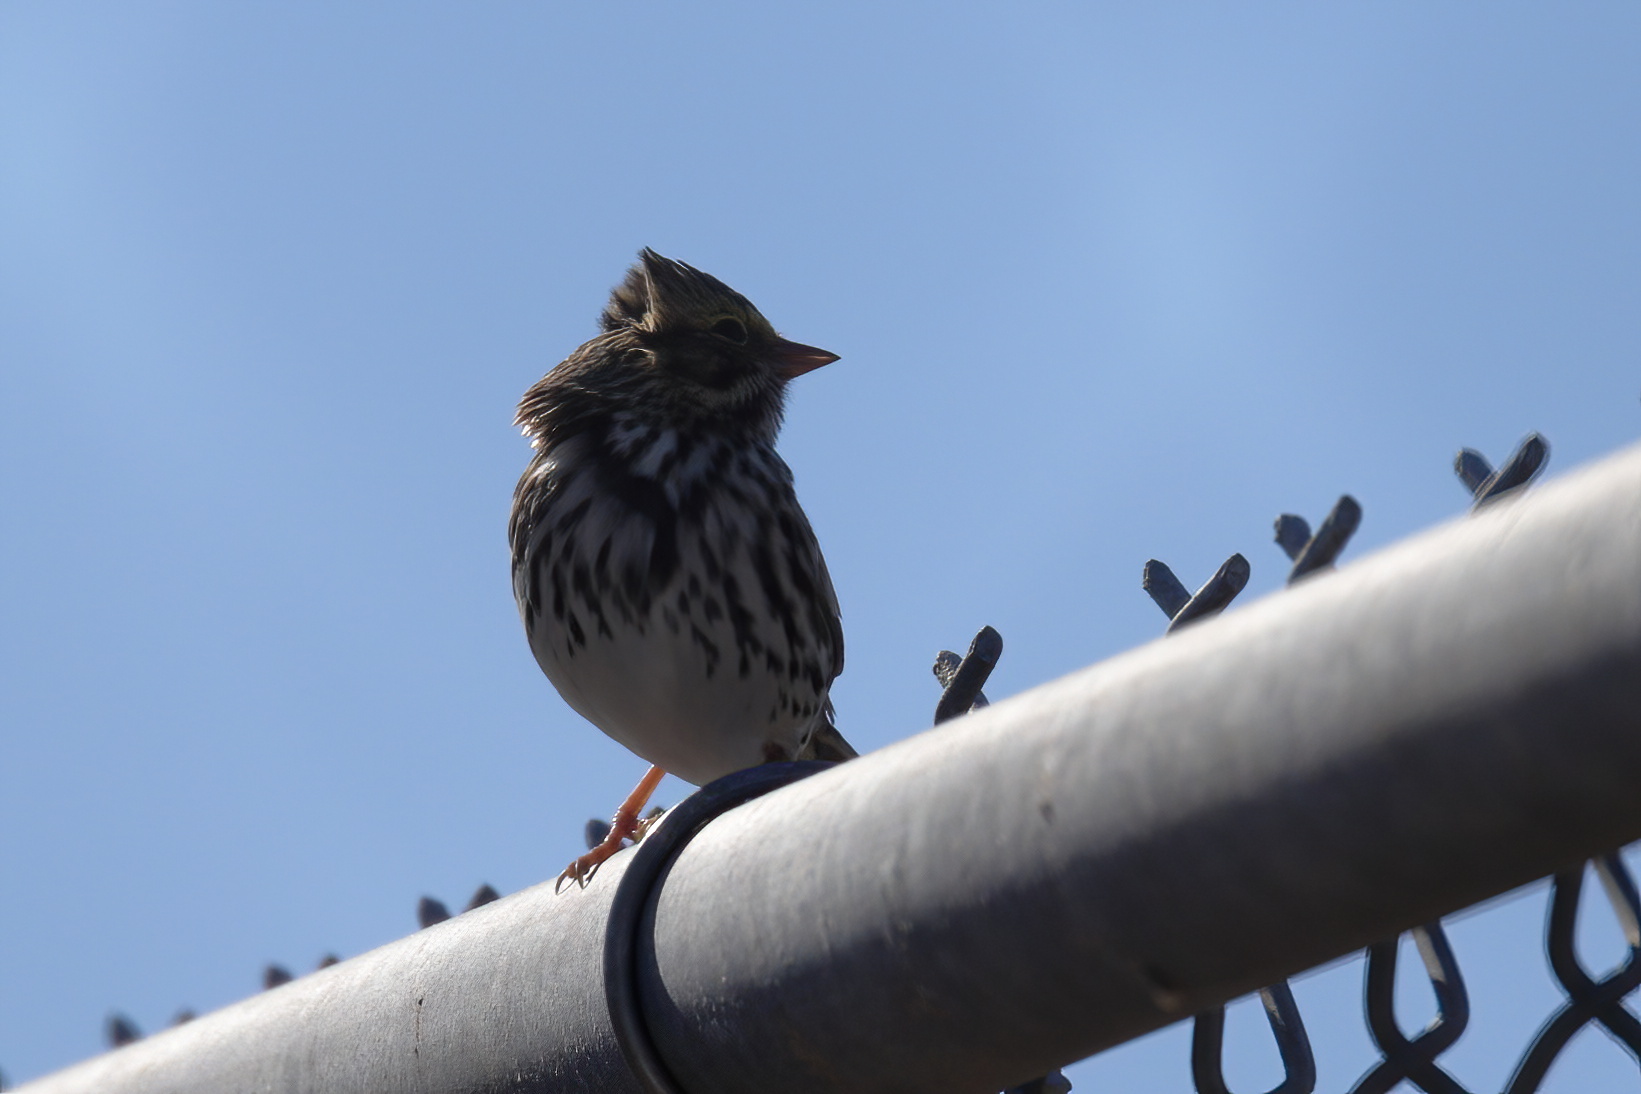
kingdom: Animalia
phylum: Chordata
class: Aves
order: Passeriformes
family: Passerellidae
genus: Passerculus
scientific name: Passerculus sandwichensis
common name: Savannah sparrow
